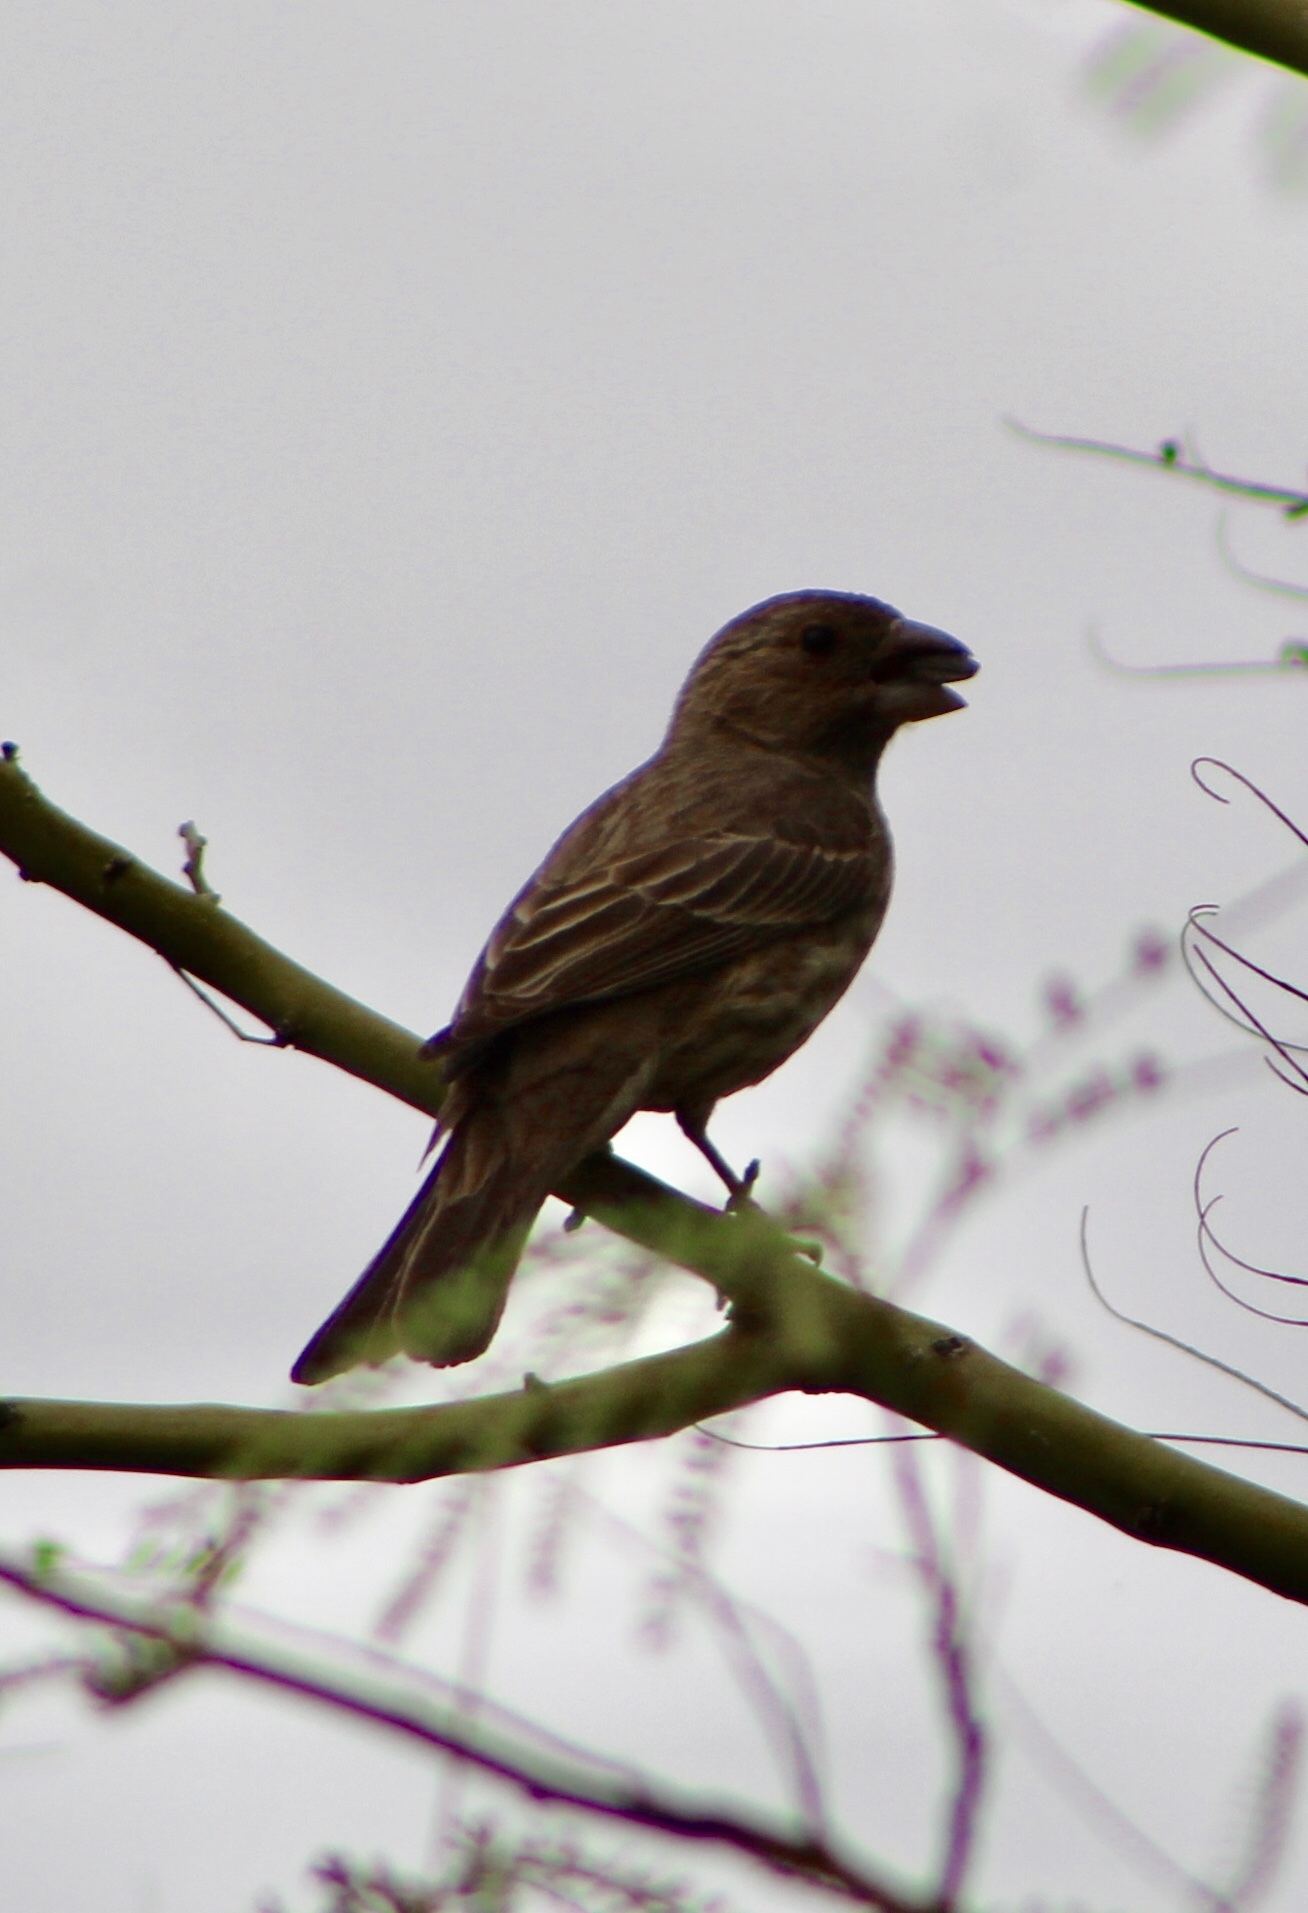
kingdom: Animalia
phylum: Chordata
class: Aves
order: Passeriformes
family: Fringillidae
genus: Haemorhous
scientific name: Haemorhous mexicanus
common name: House finch
